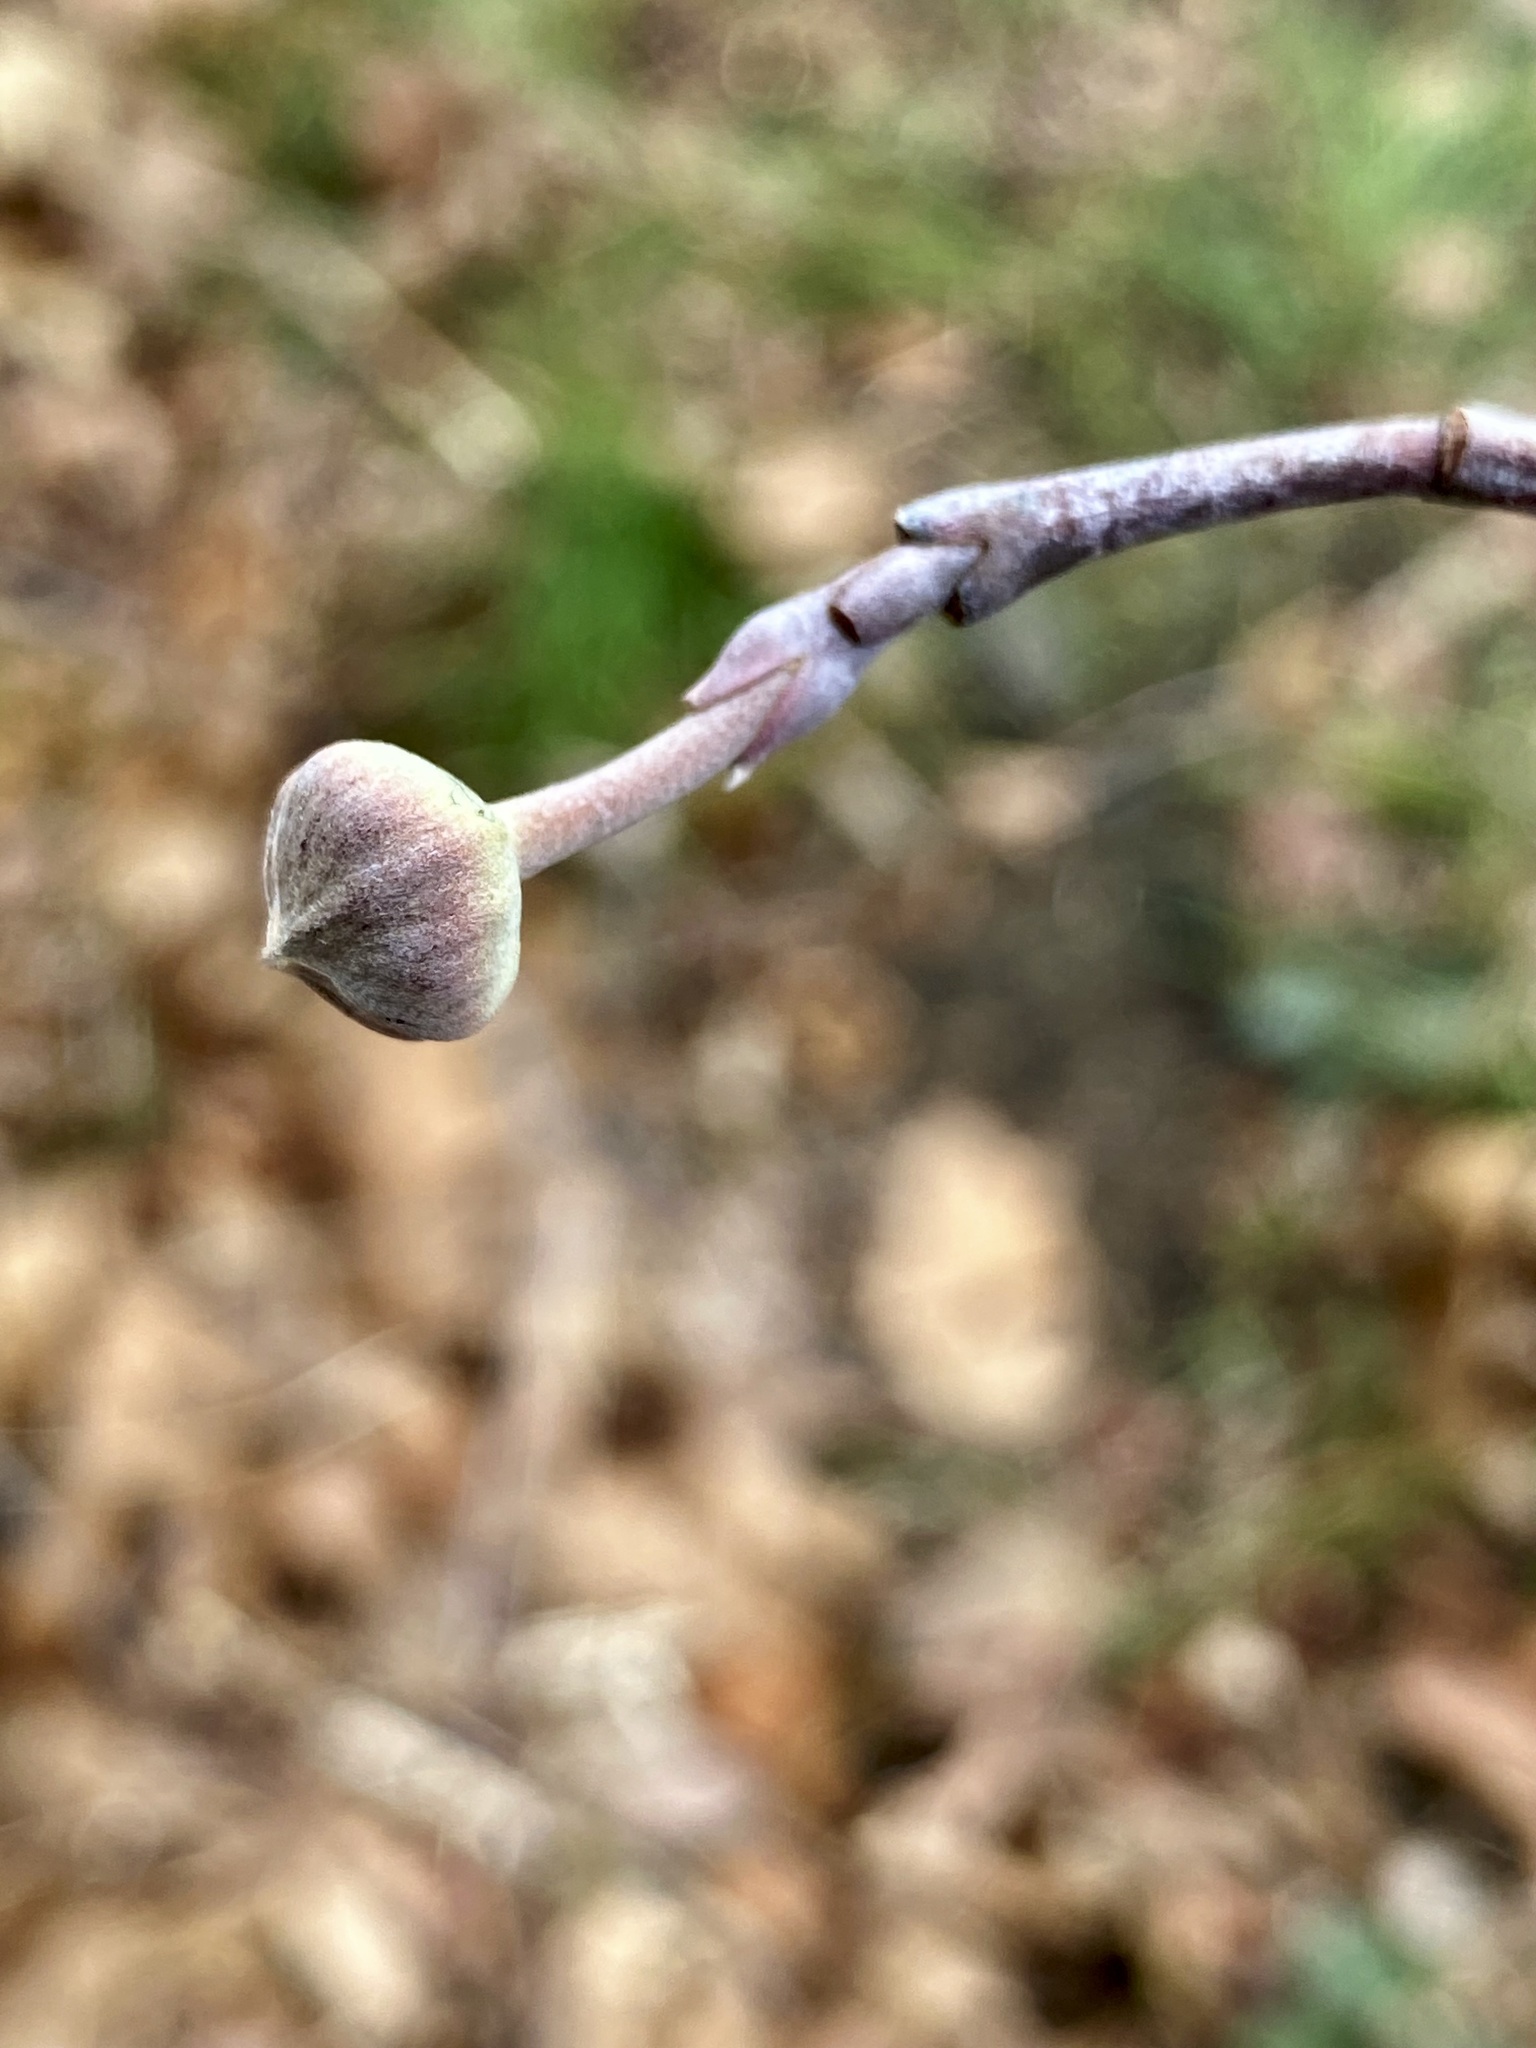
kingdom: Plantae
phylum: Tracheophyta
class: Magnoliopsida
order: Cornales
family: Cornaceae
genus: Cornus
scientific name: Cornus florida
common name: Flowering dogwood
